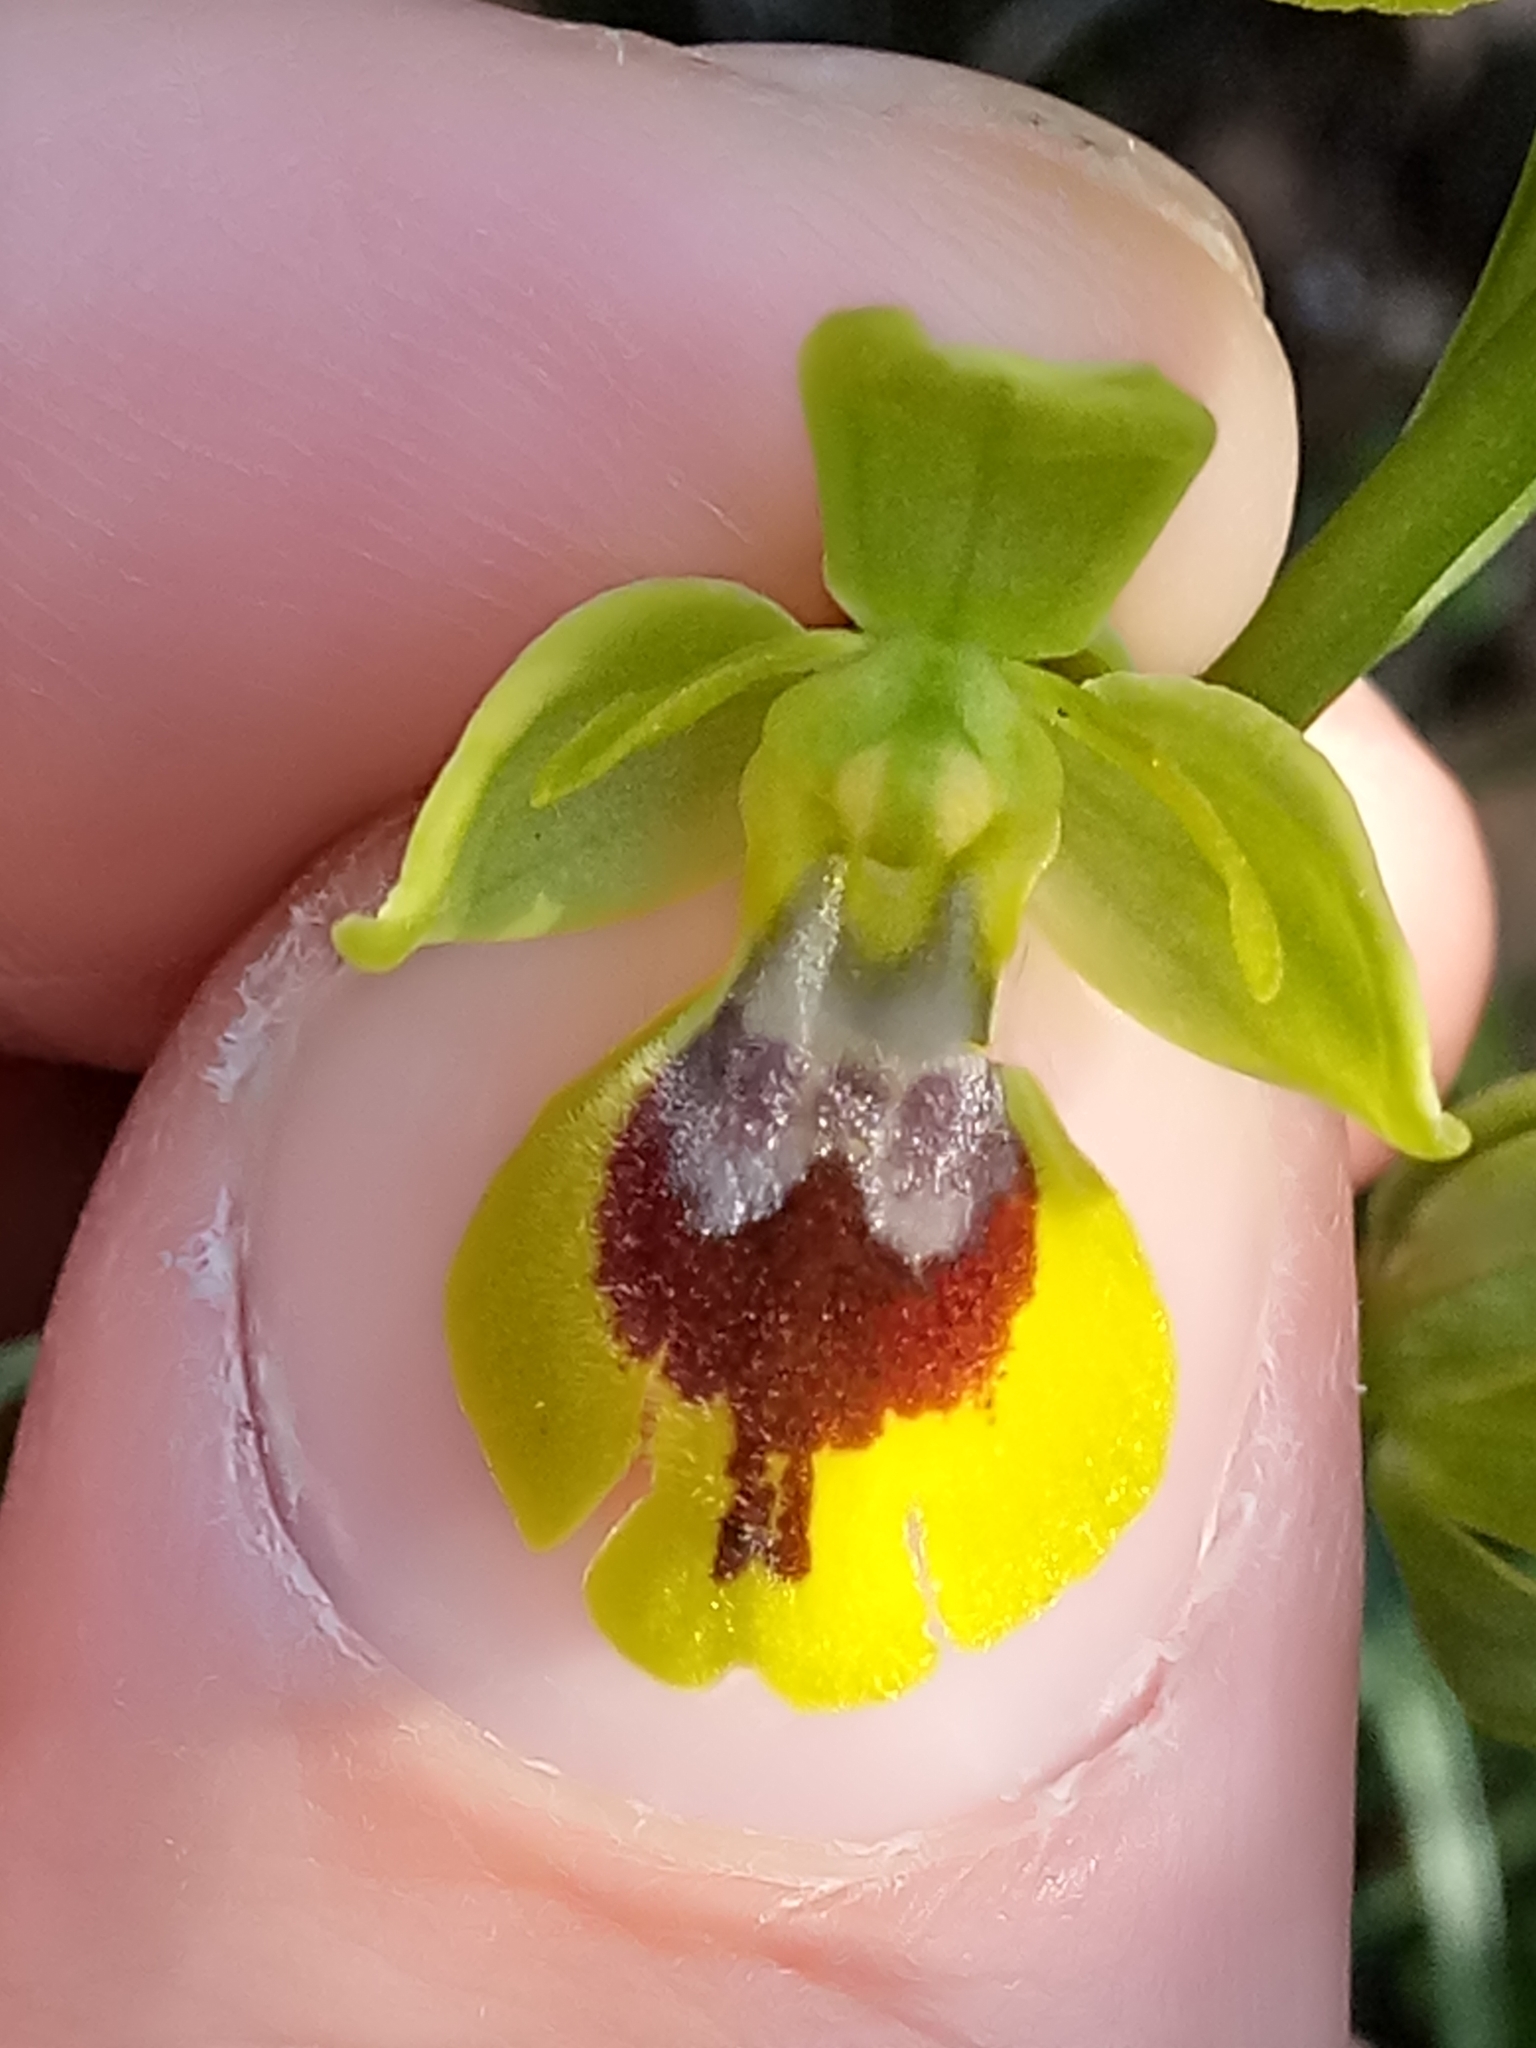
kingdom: Plantae
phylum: Tracheophyta
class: Liliopsida
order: Asparagales
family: Orchidaceae
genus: Ophrys
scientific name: Ophrys battandieri
